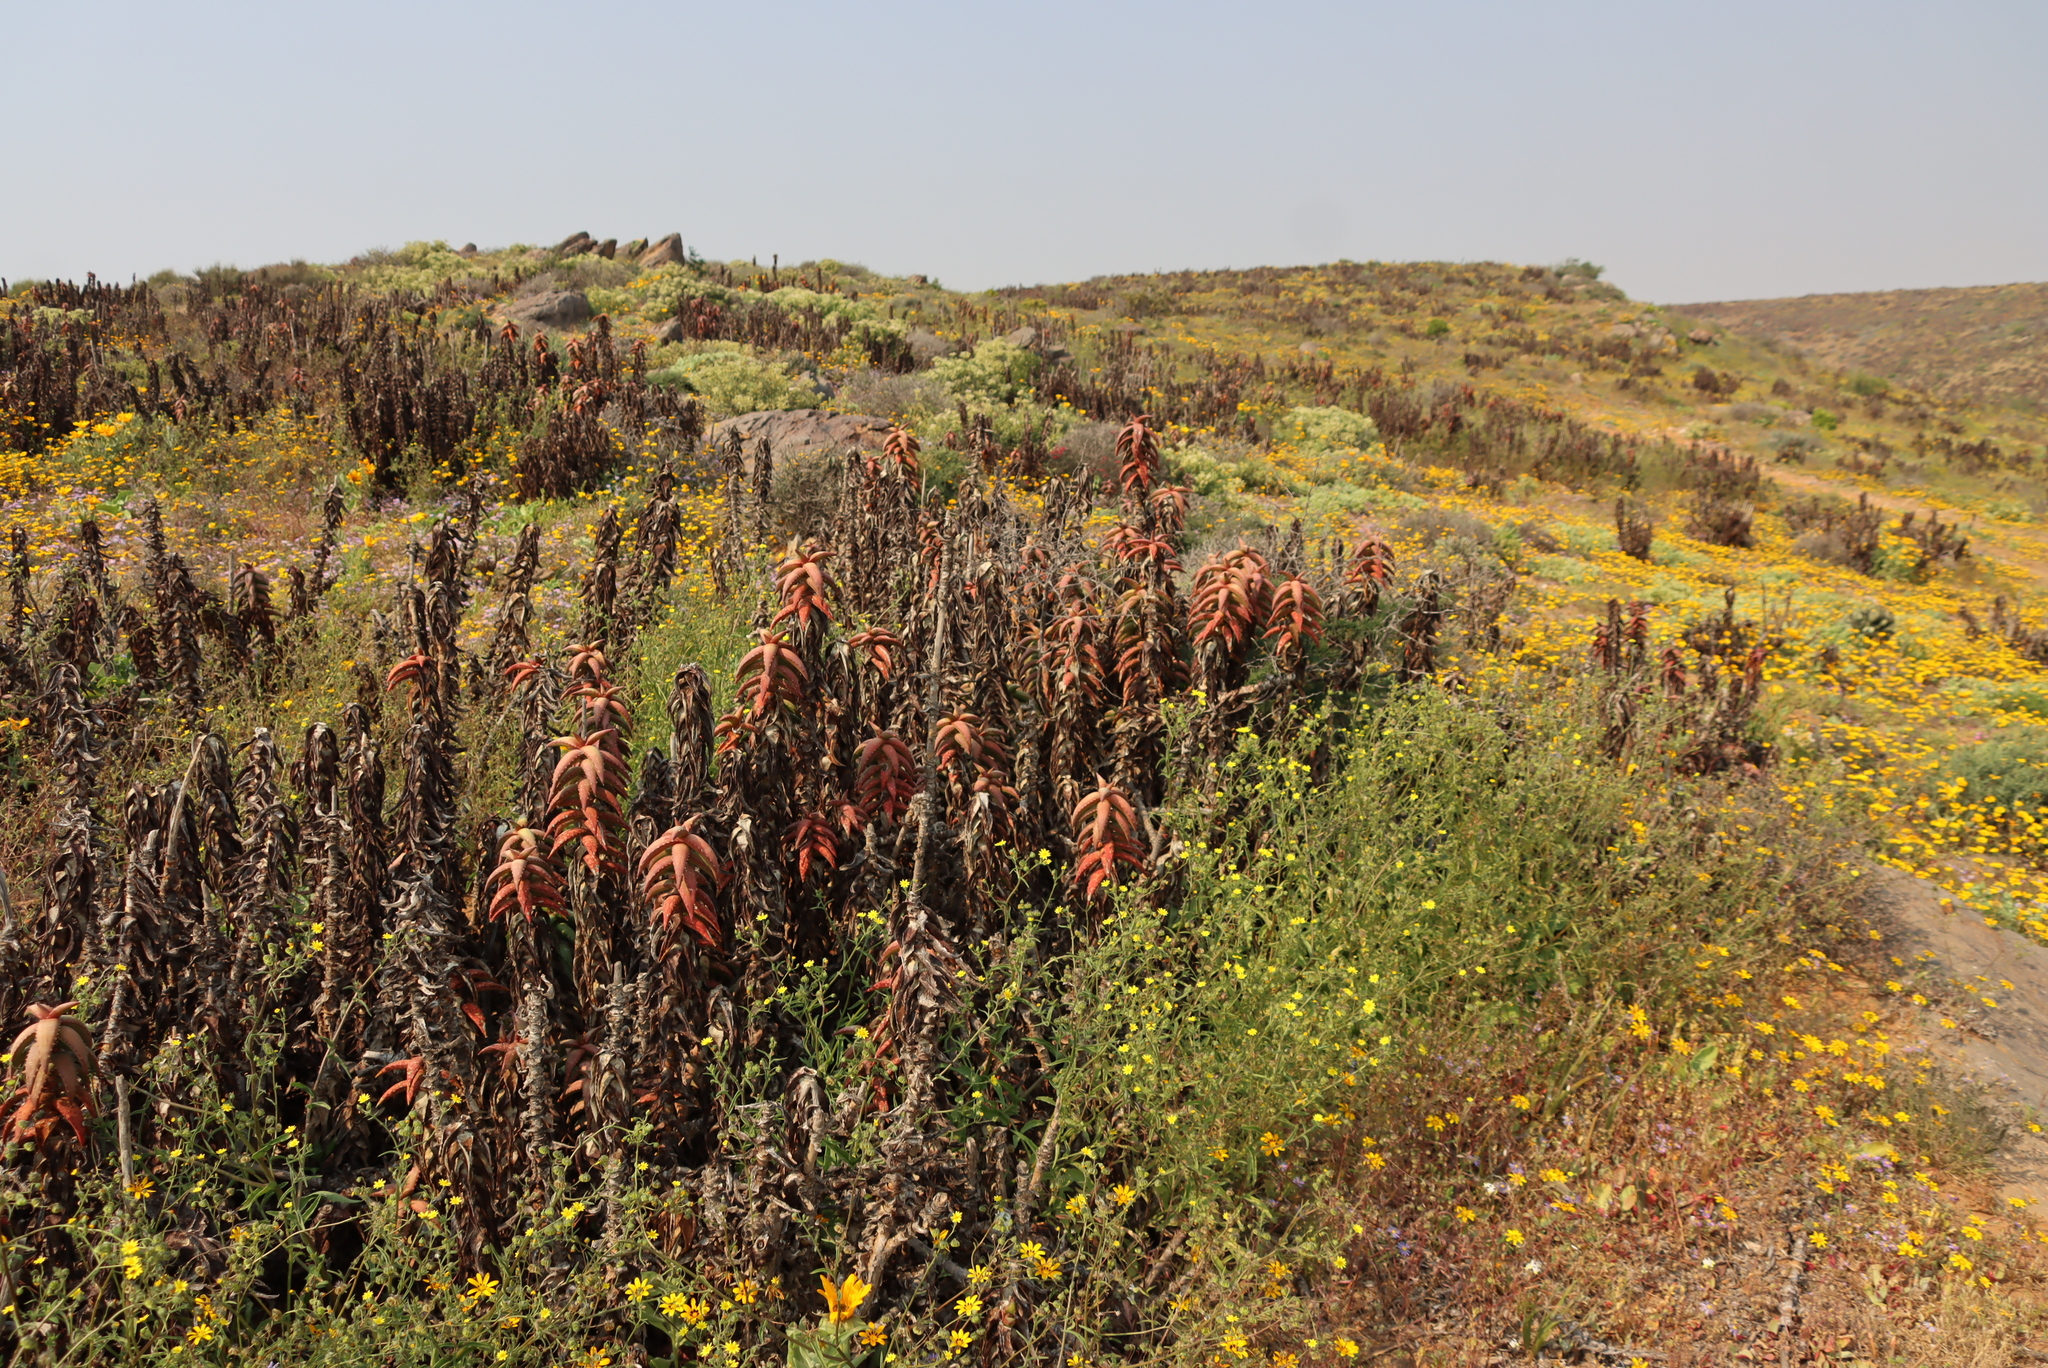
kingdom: Plantae
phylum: Tracheophyta
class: Liliopsida
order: Asparagales
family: Asphodelaceae
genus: Aloe
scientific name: Aloe pearsonii
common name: Pearson's aloe
